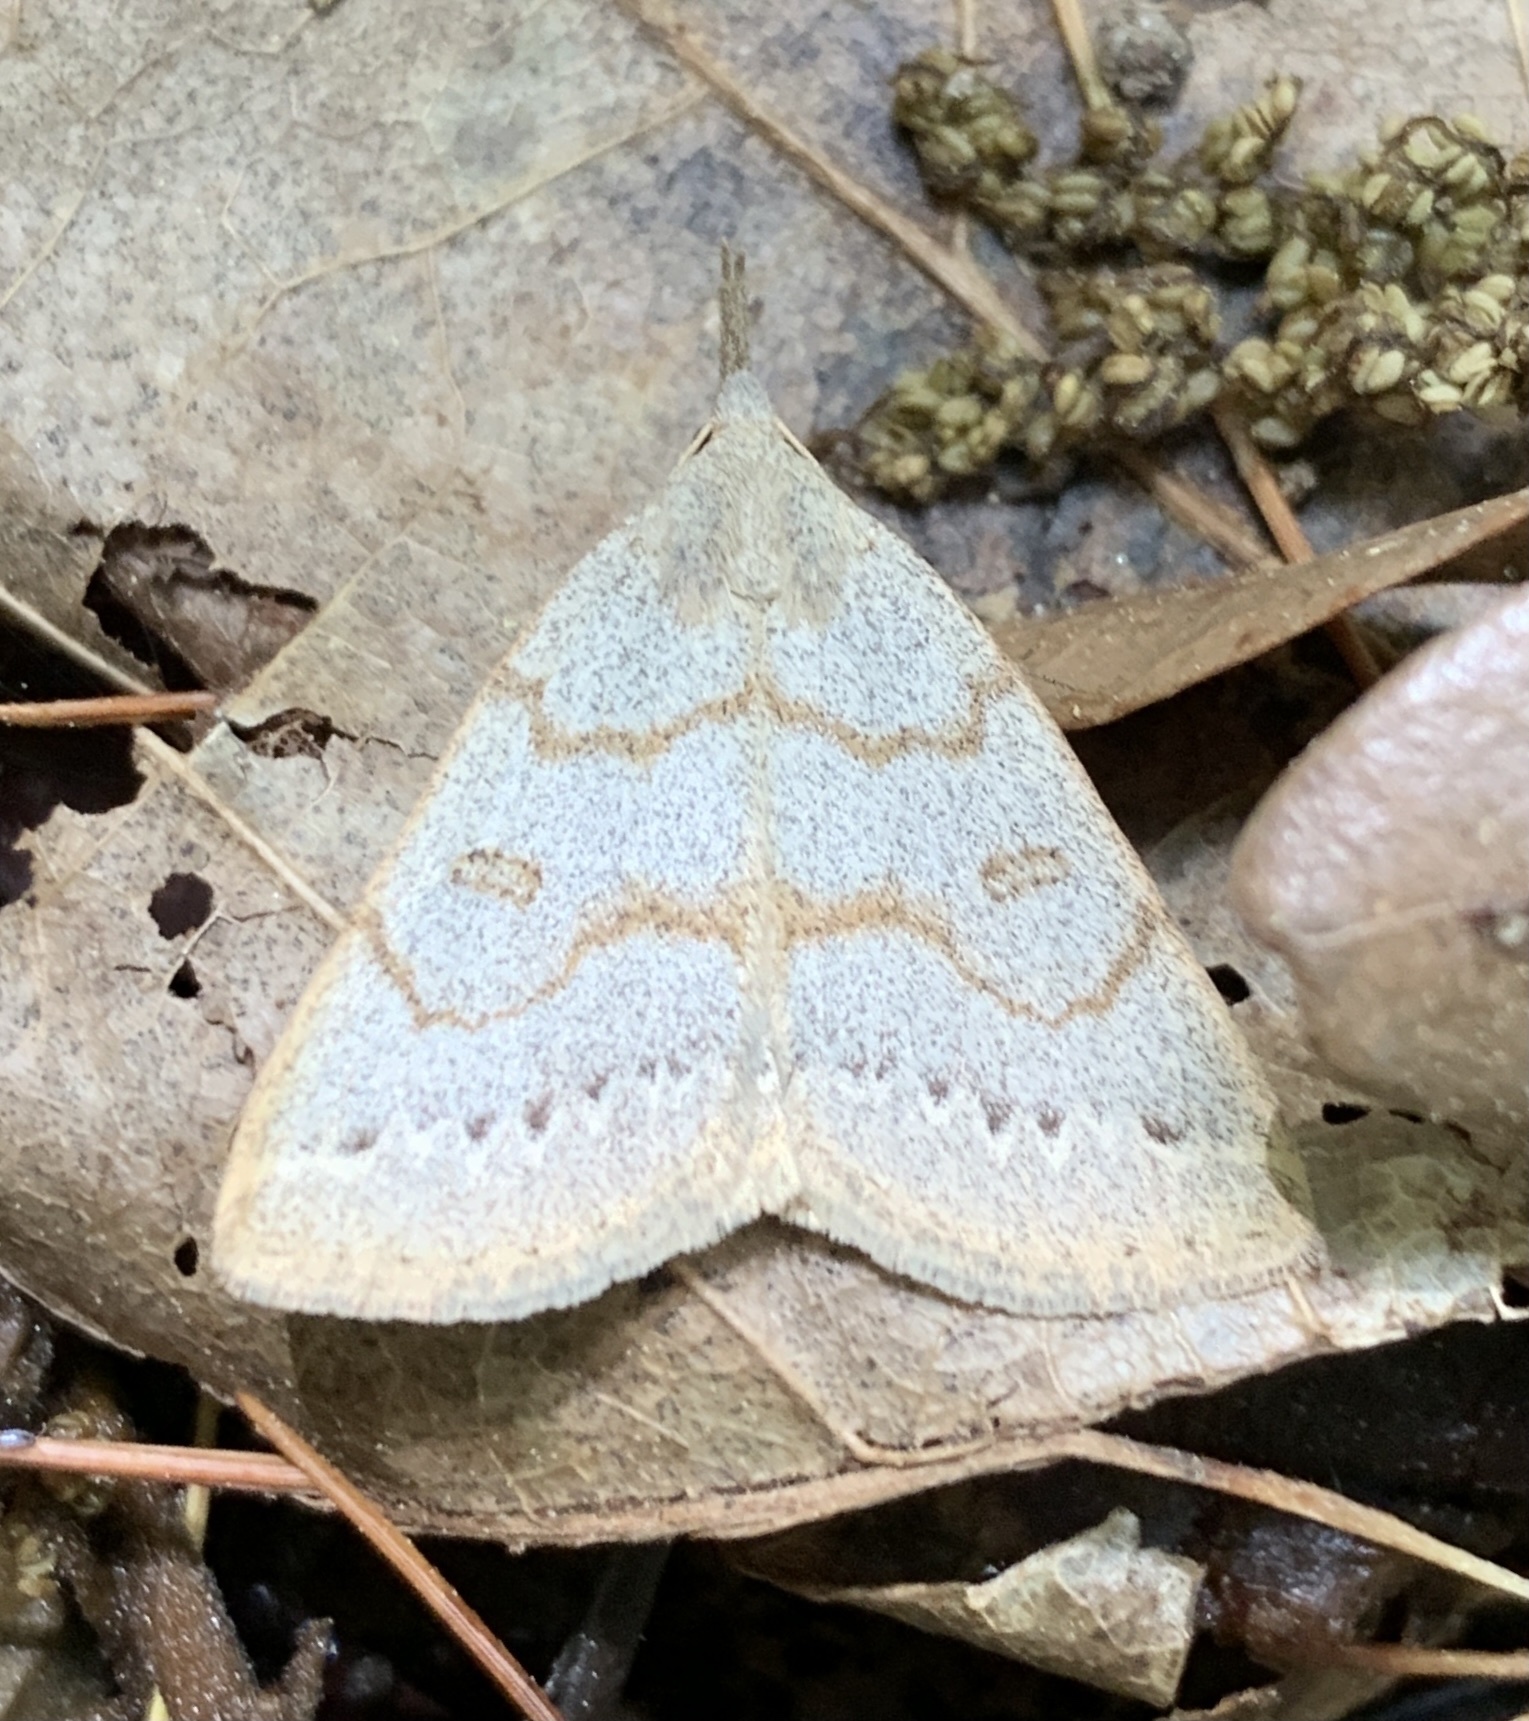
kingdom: Animalia
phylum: Arthropoda
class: Insecta
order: Lepidoptera
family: Erebidae
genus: Macrochilo
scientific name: Macrochilo morbidalis
